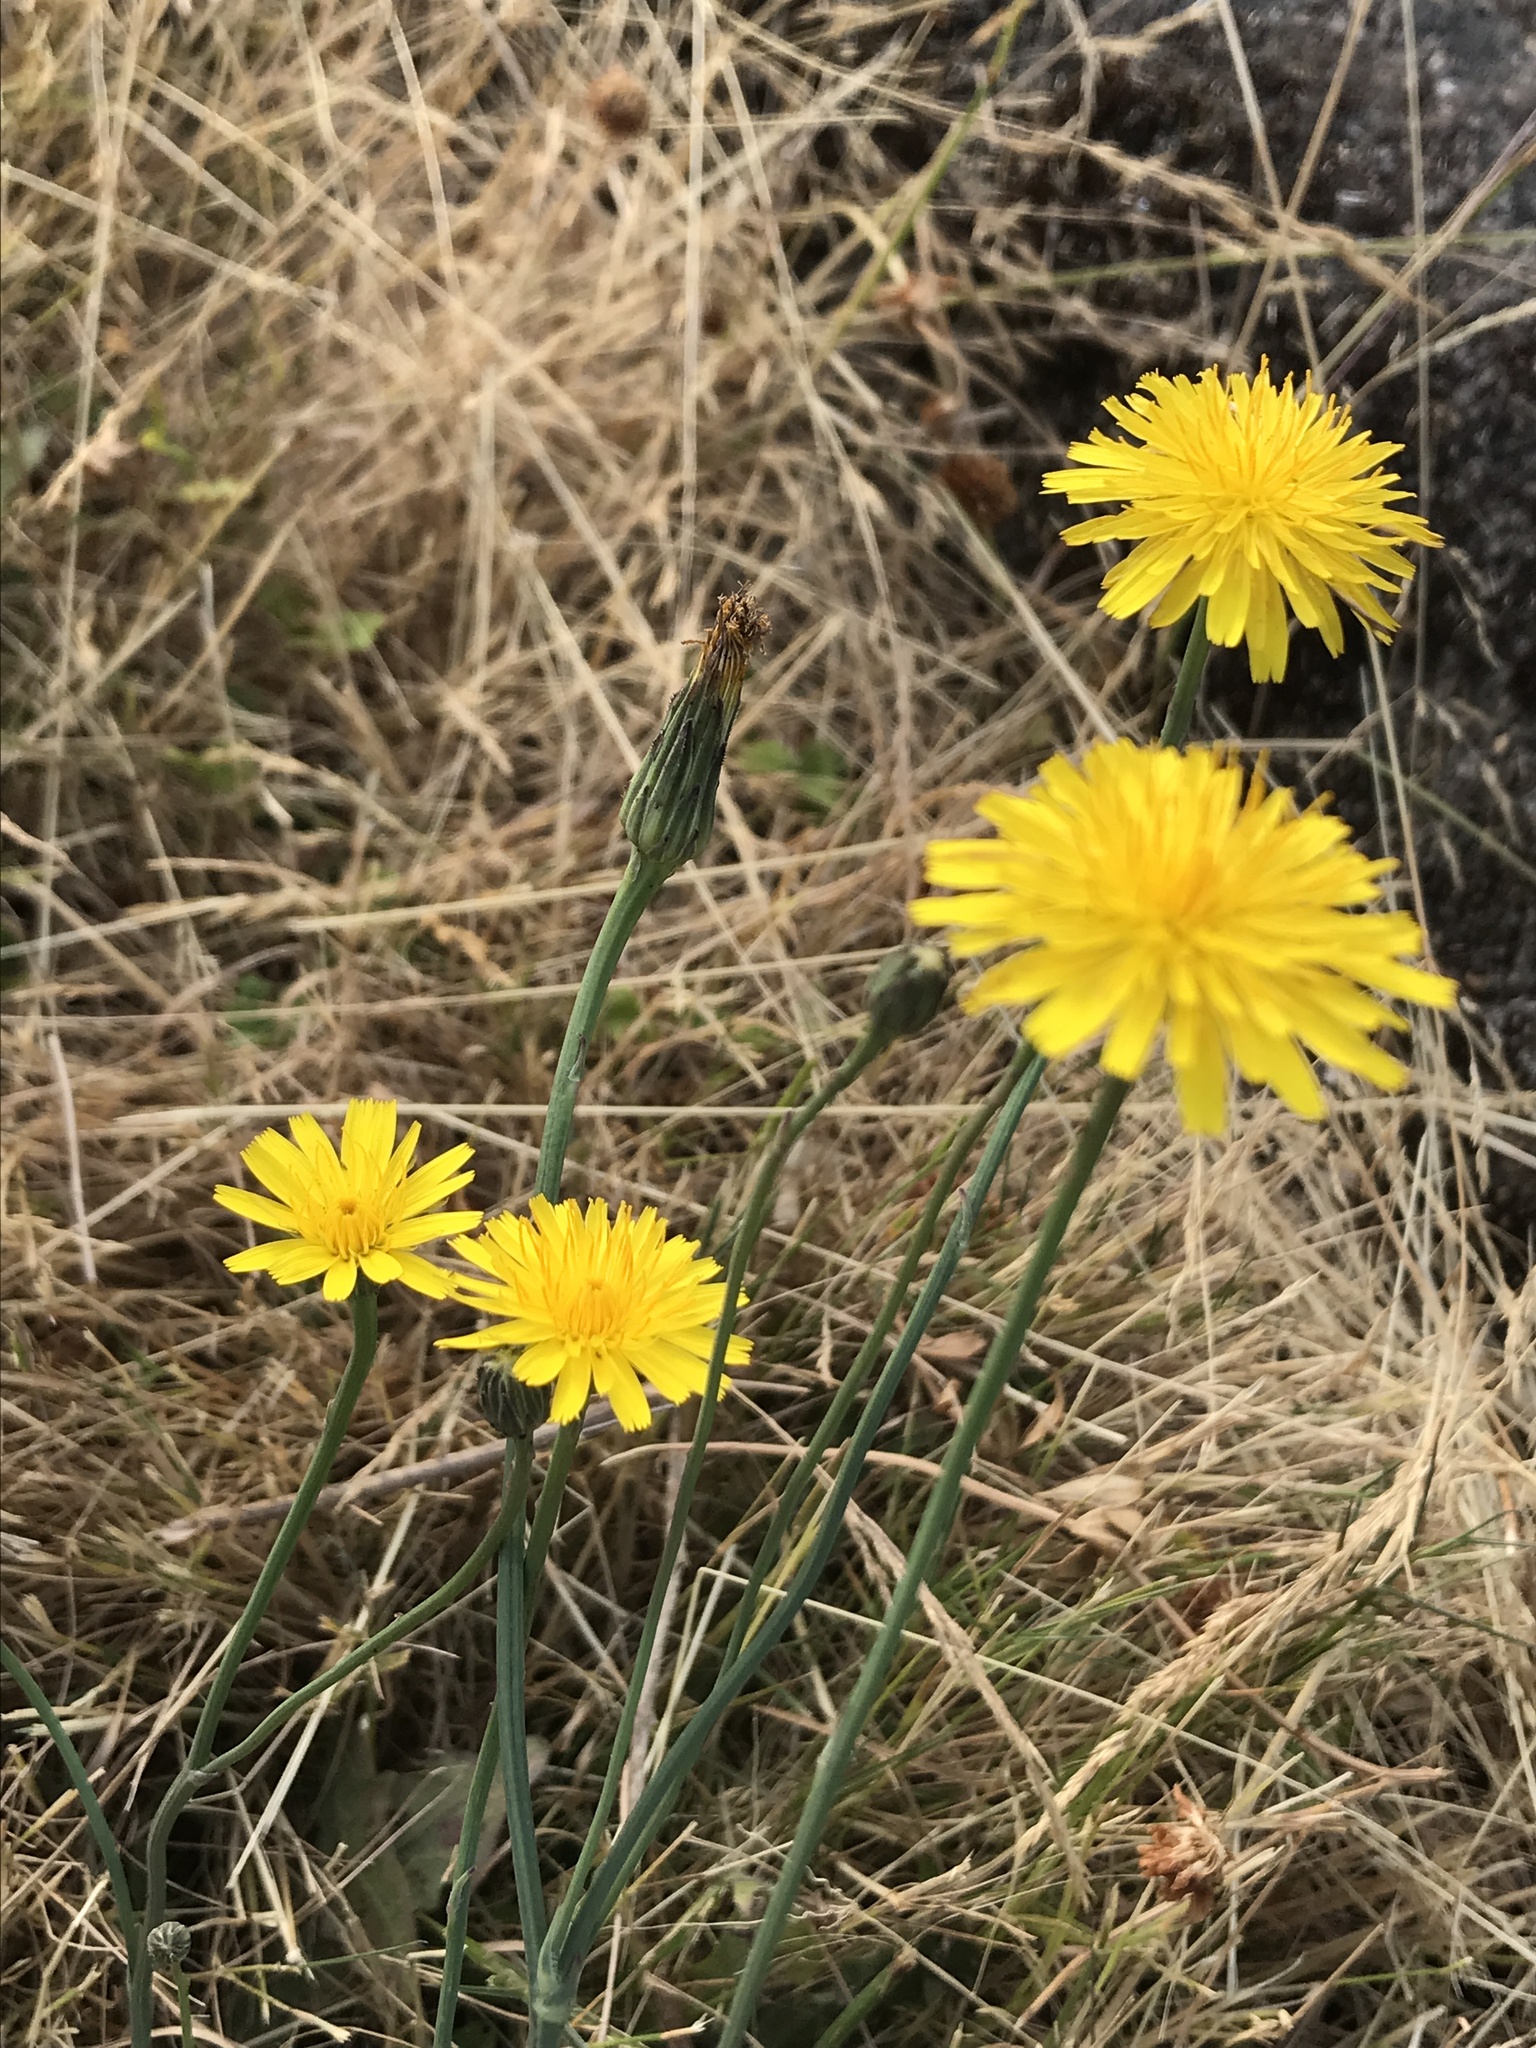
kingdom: Plantae
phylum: Tracheophyta
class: Magnoliopsida
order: Asterales
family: Asteraceae
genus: Hypochaeris
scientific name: Hypochaeris radicata
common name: Flatweed
